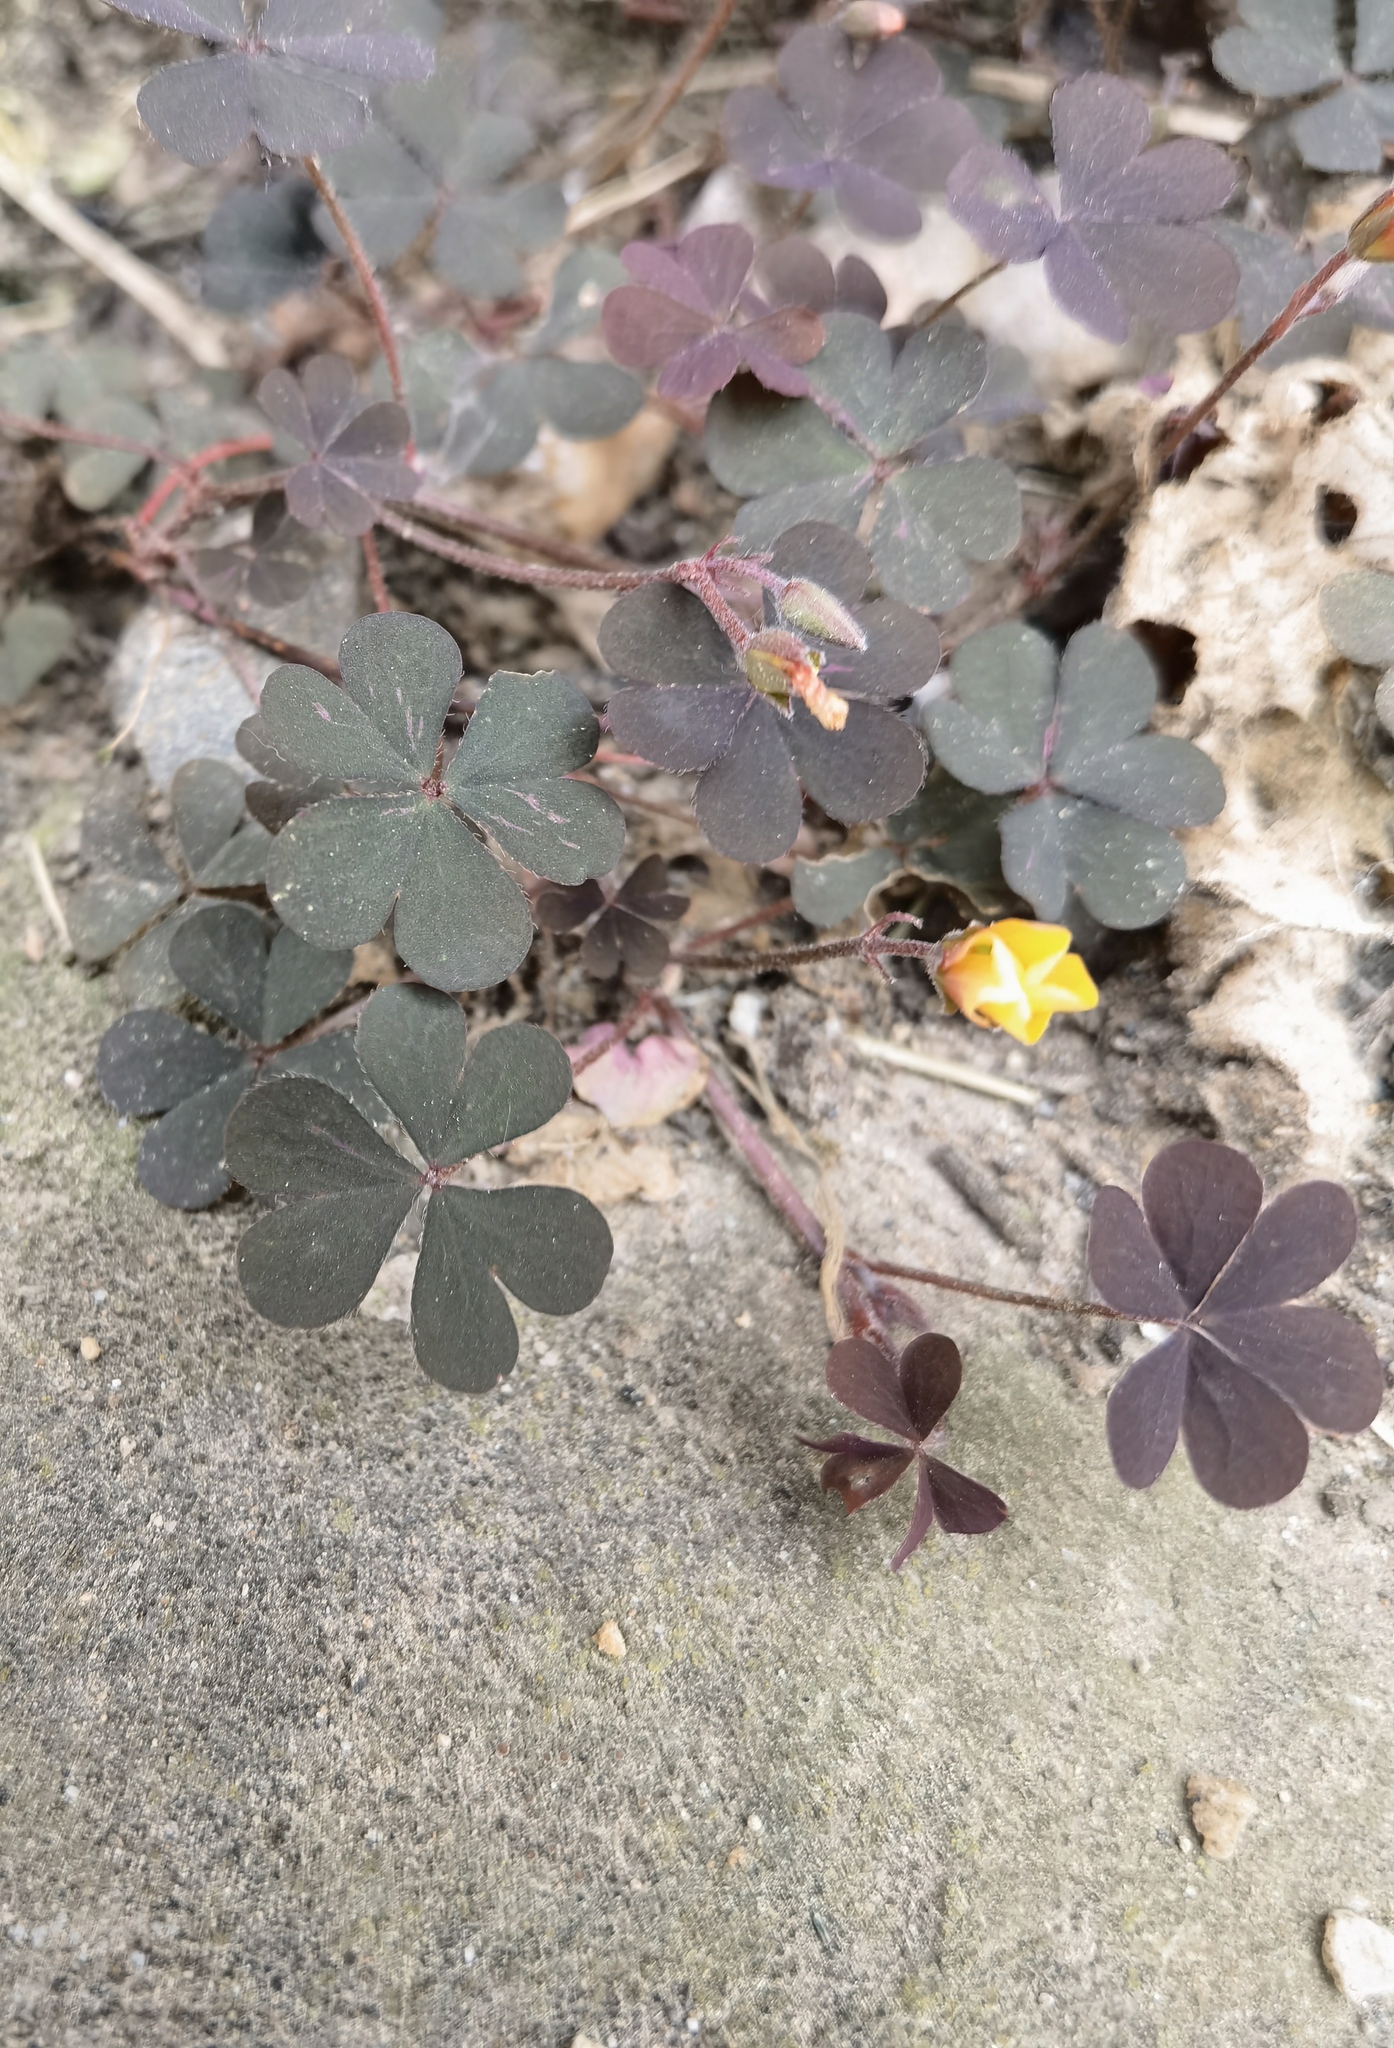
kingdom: Plantae
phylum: Tracheophyta
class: Magnoliopsida
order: Oxalidales
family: Oxalidaceae
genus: Oxalis
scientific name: Oxalis corniculata
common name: Procumbent yellow-sorrel
